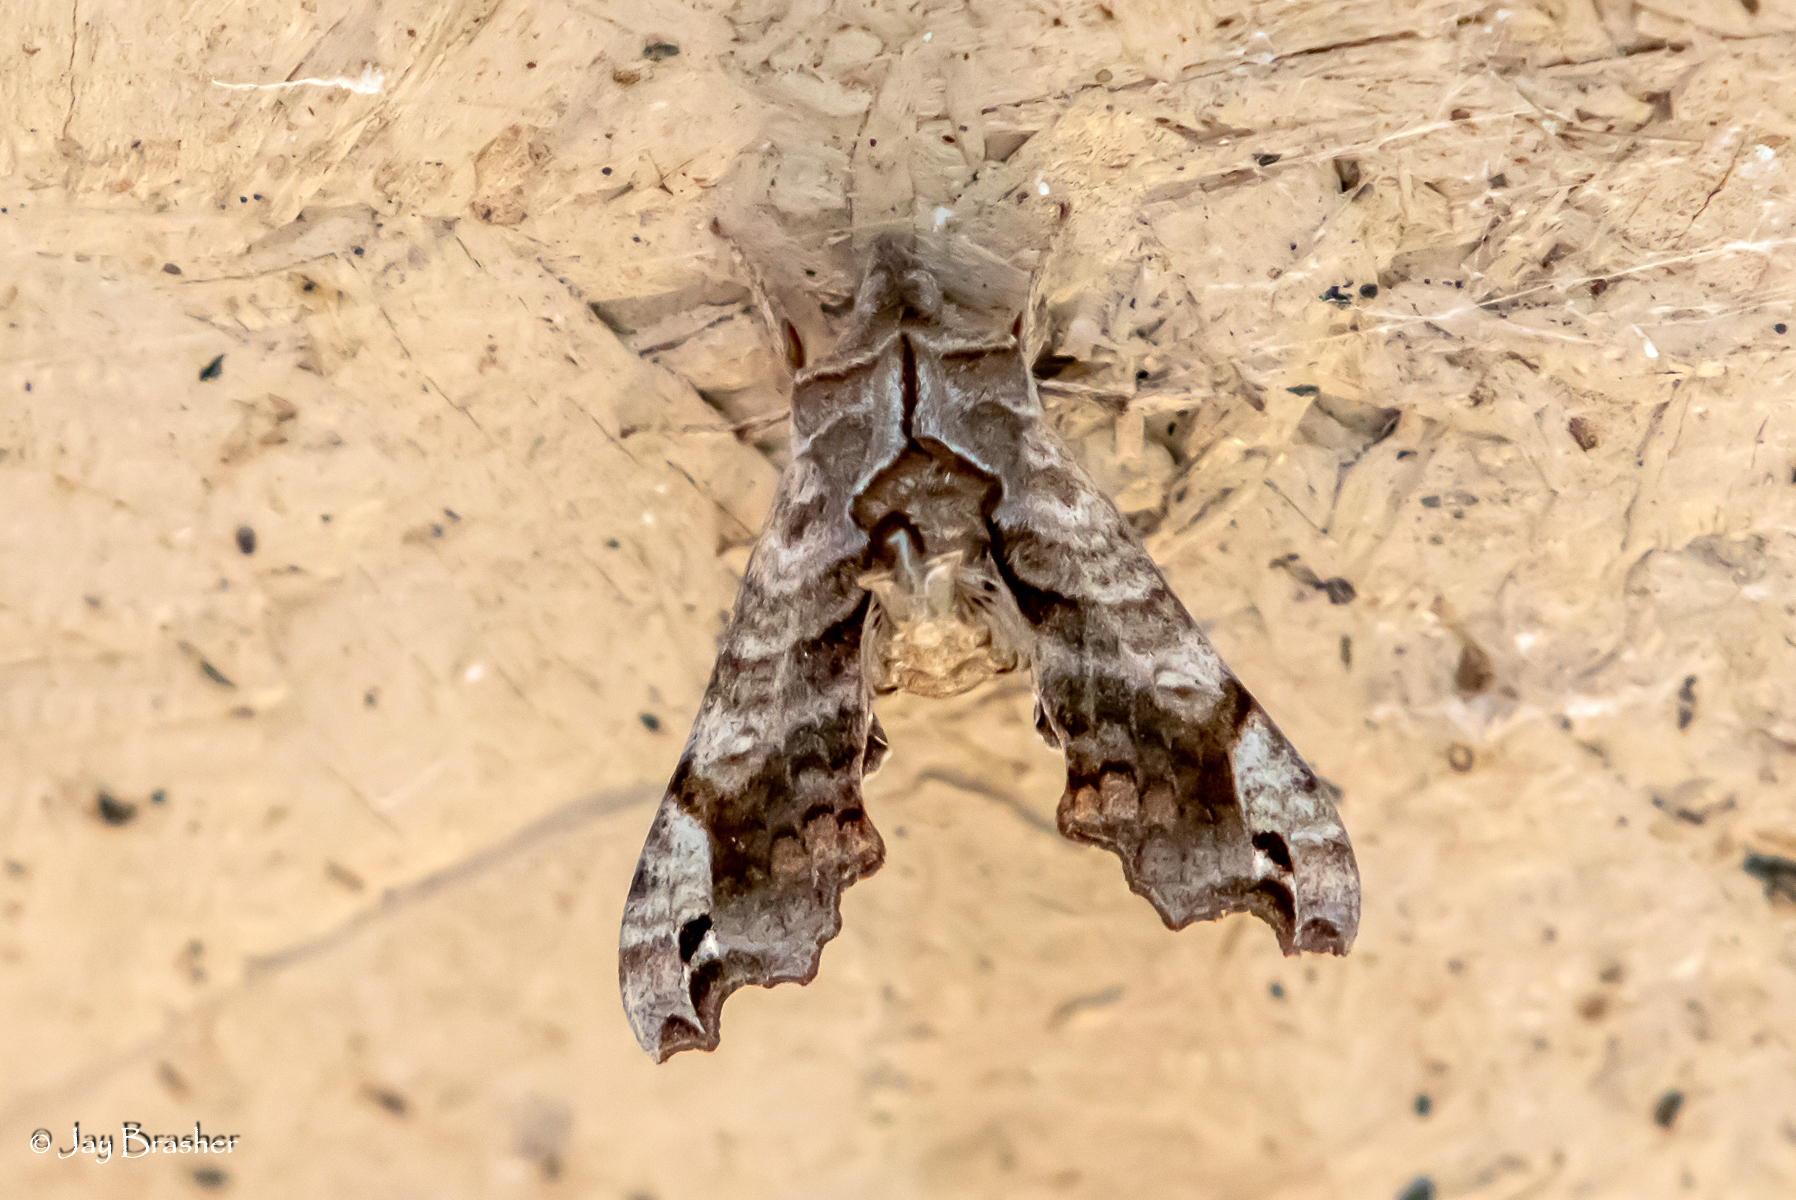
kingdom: Animalia
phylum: Arthropoda
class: Insecta
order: Lepidoptera
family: Sphingidae
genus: Deidamia
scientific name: Deidamia inscriptum
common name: Lettered sphinx
